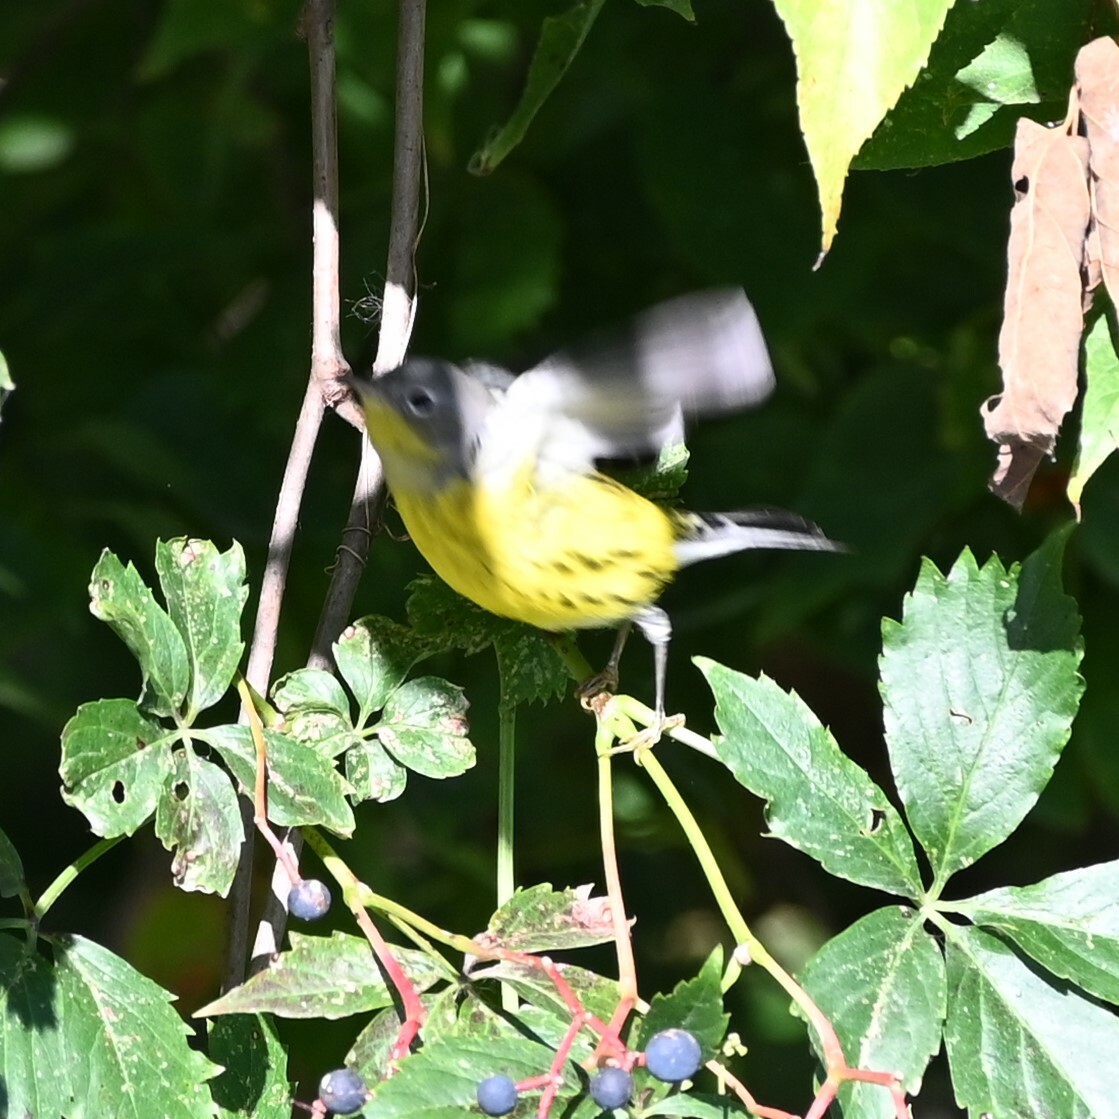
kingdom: Animalia
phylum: Chordata
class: Aves
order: Passeriformes
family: Parulidae
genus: Setophaga
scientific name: Setophaga magnolia
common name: Magnolia warbler
